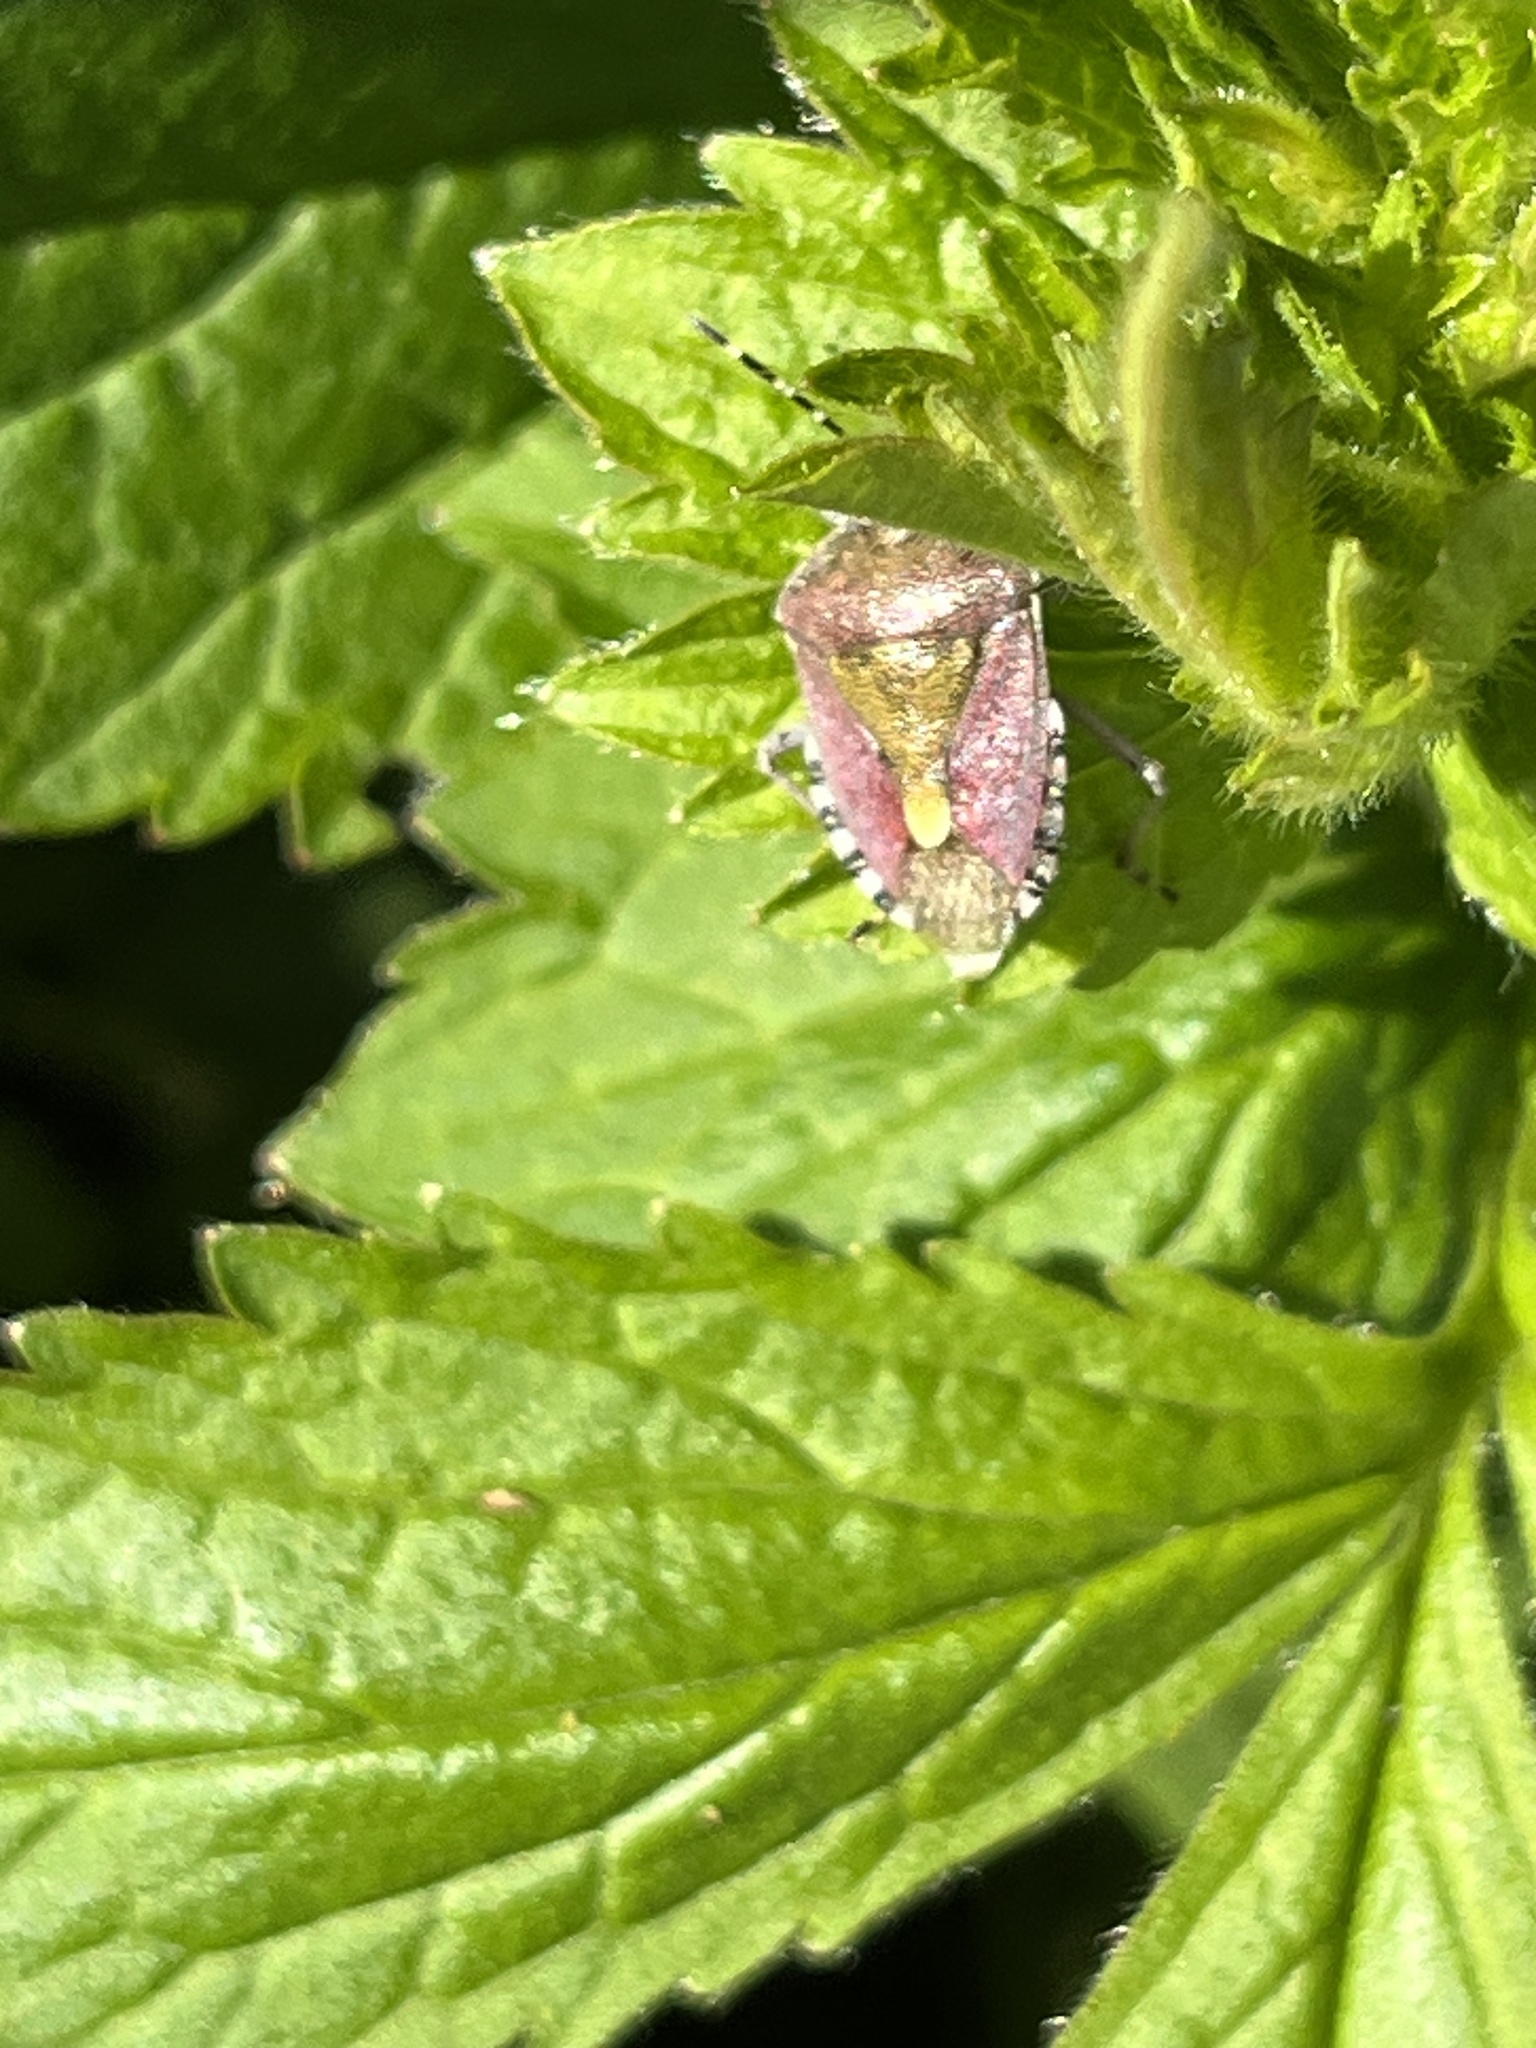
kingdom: Animalia
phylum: Arthropoda
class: Insecta
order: Hemiptera
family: Pentatomidae
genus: Dolycoris
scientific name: Dolycoris baccarum
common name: Sloe bug
